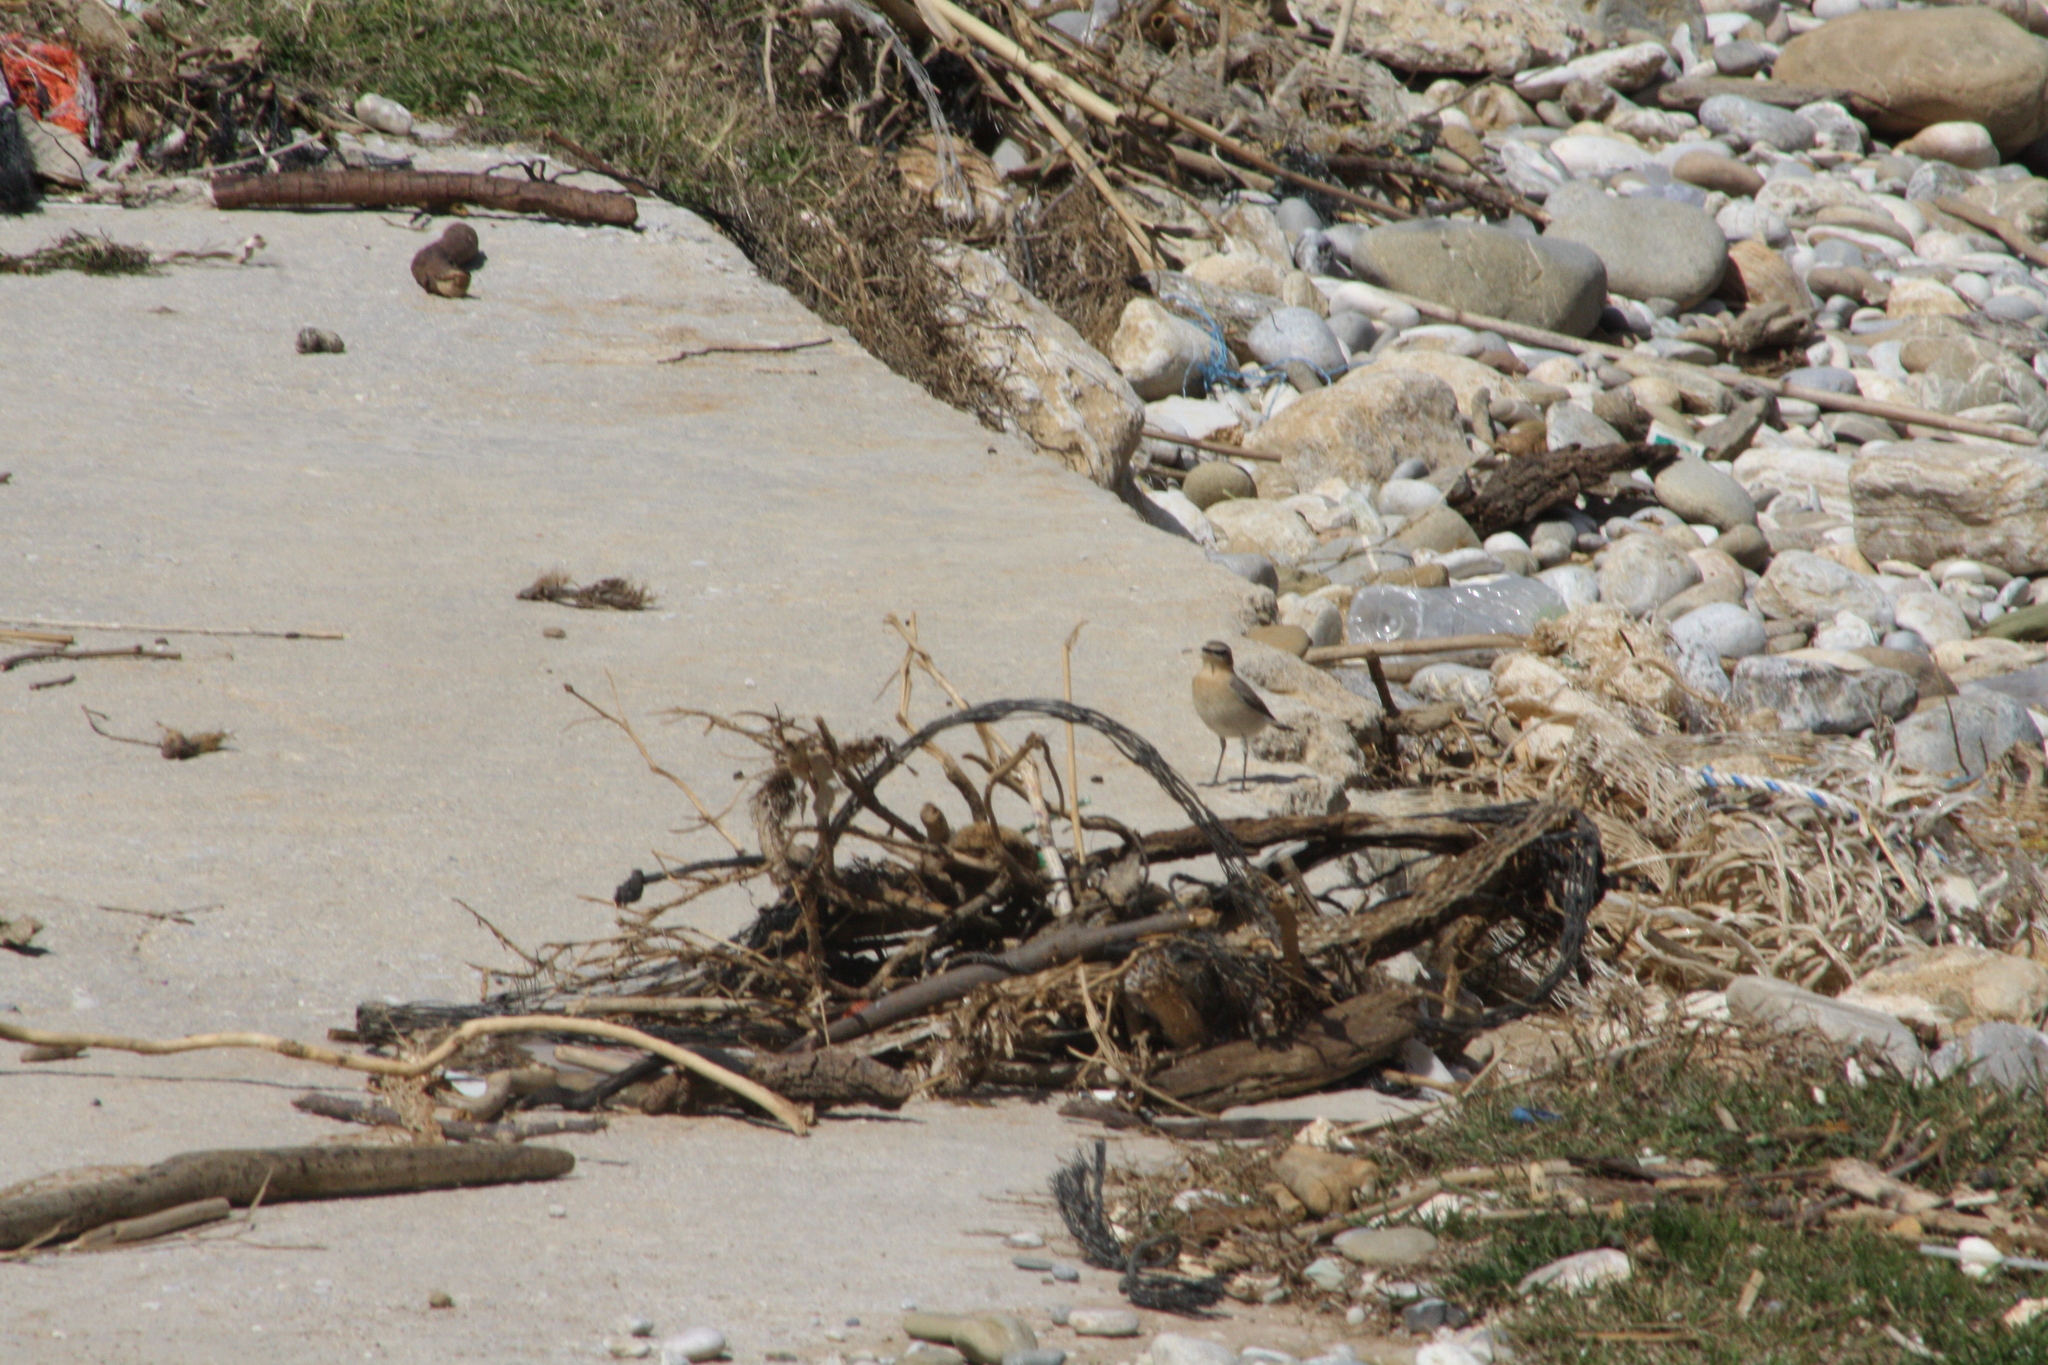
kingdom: Animalia
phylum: Chordata
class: Aves
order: Passeriformes
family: Muscicapidae
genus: Oenanthe
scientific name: Oenanthe oenanthe
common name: Northern wheatear
